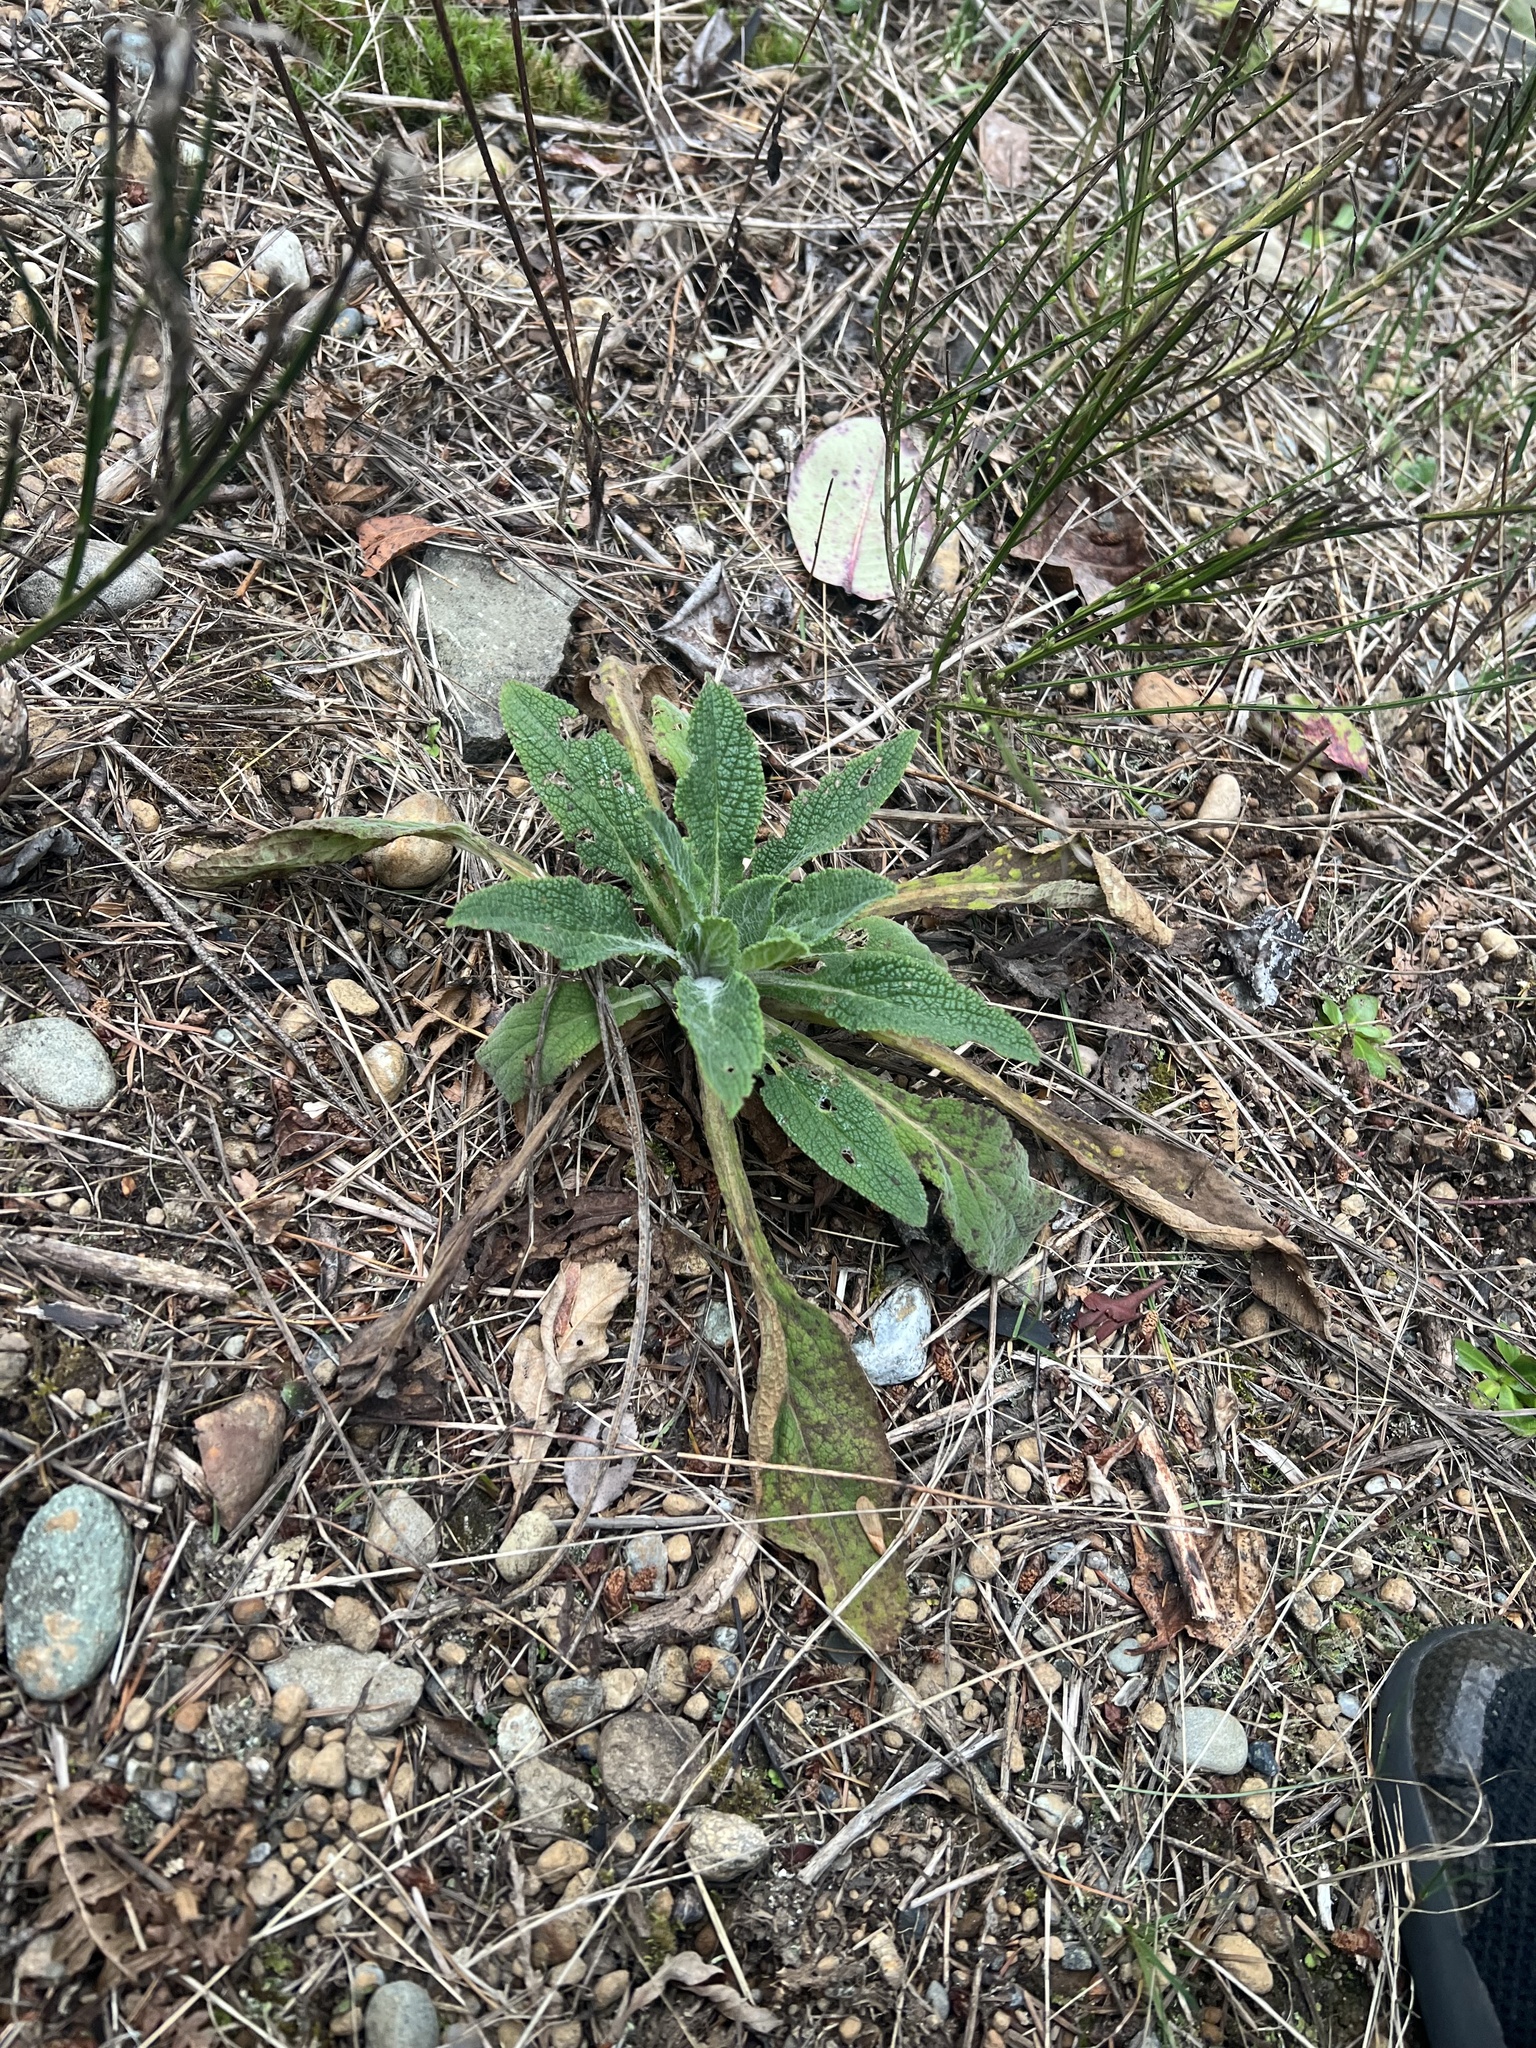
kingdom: Plantae
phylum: Tracheophyta
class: Magnoliopsida
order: Lamiales
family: Plantaginaceae
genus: Digitalis
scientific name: Digitalis purpurea
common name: Foxglove
